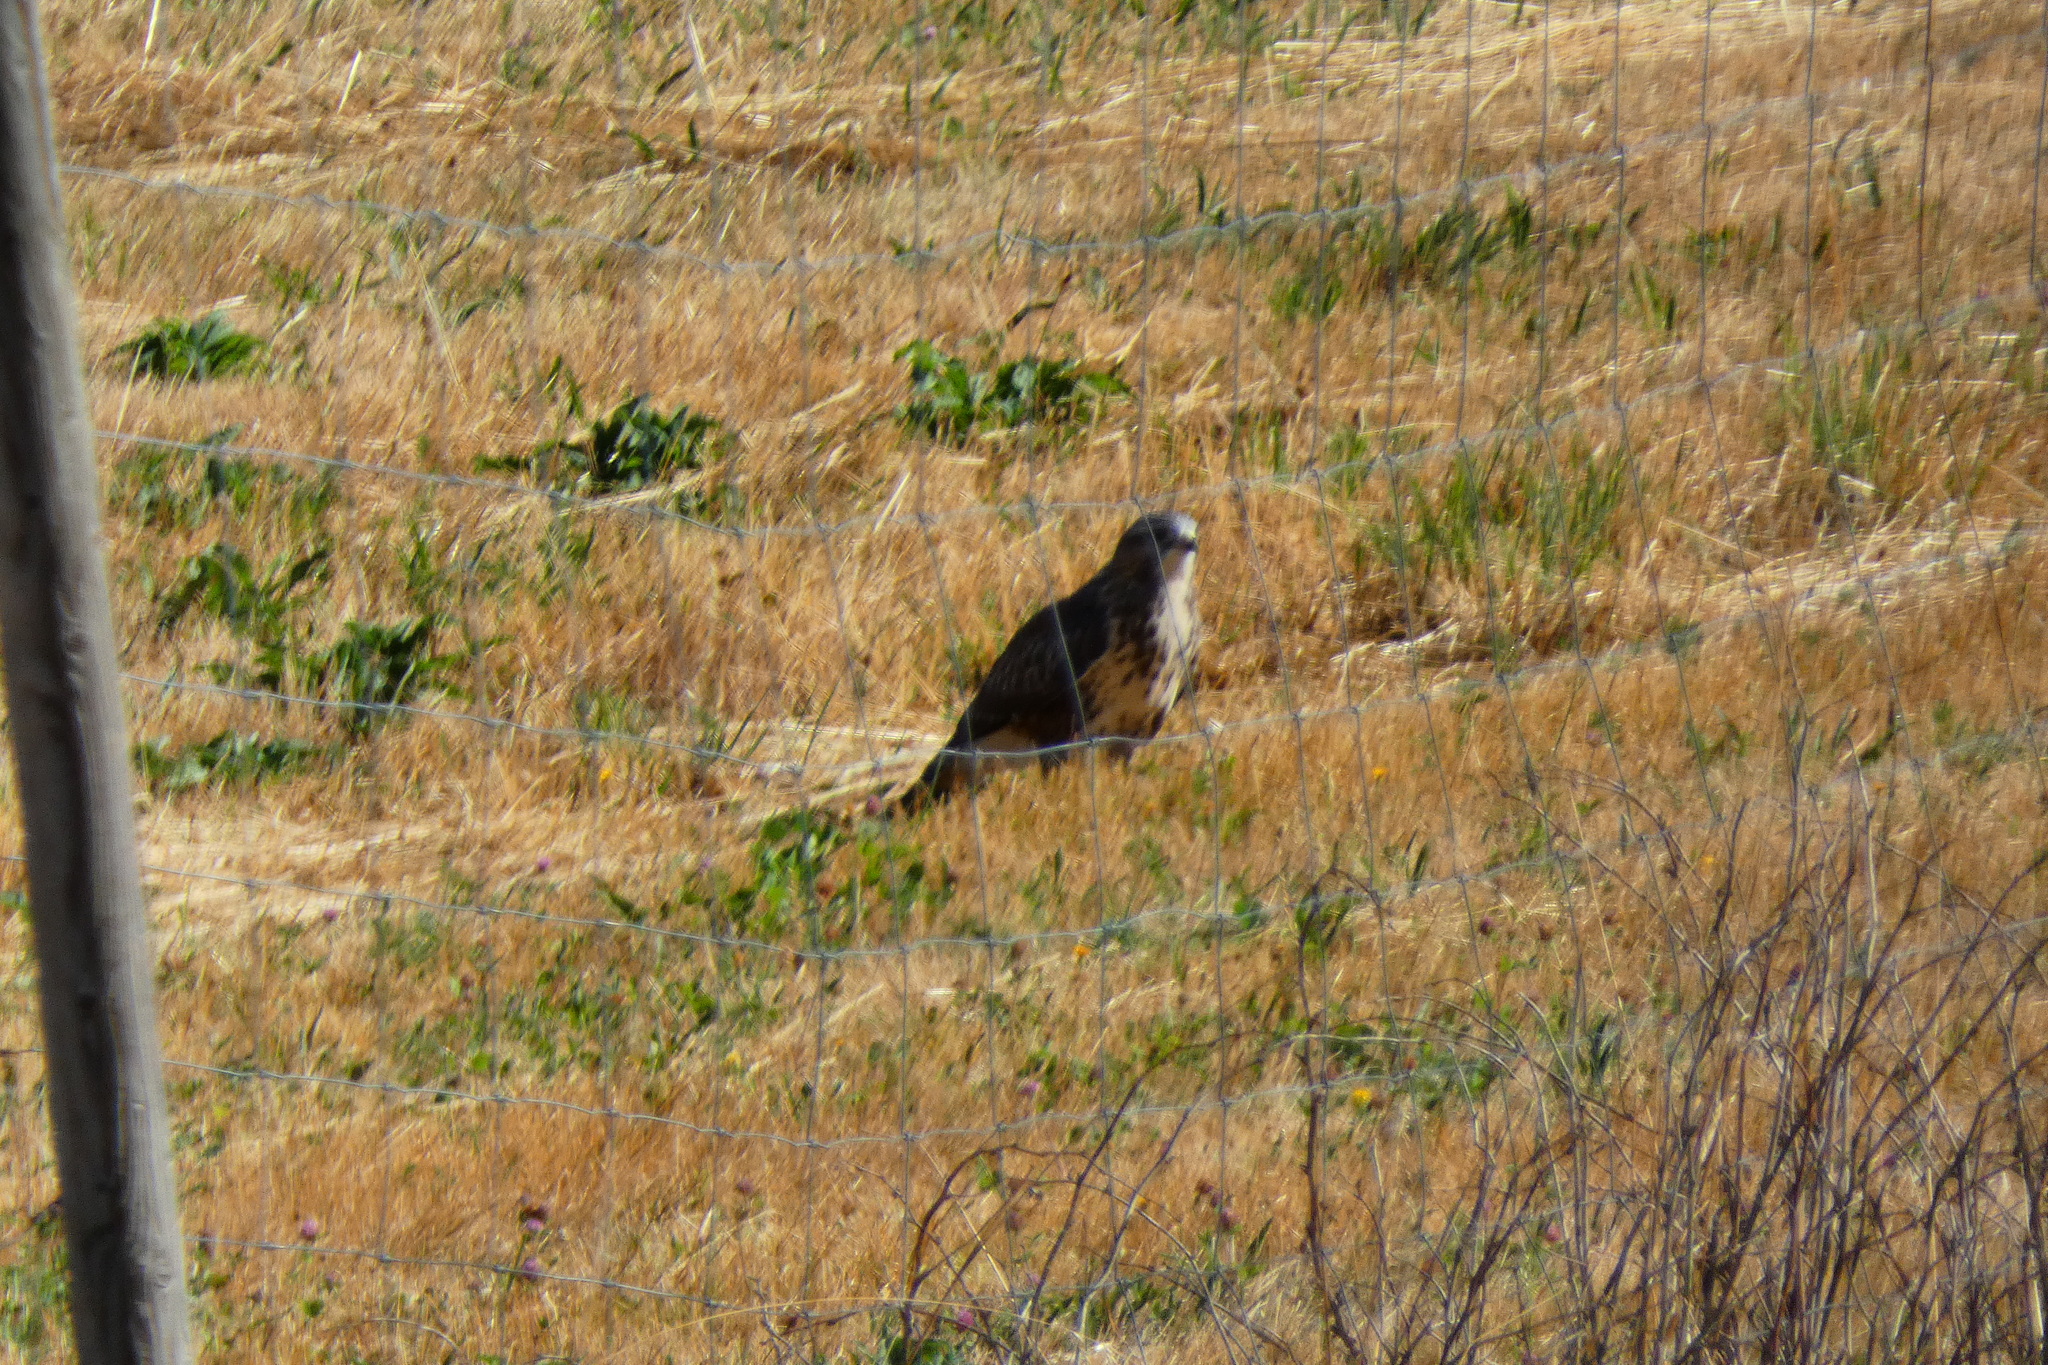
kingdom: Animalia
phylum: Chordata
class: Aves
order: Accipitriformes
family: Accipitridae
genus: Buteo
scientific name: Buteo buteo
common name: Common buzzard
